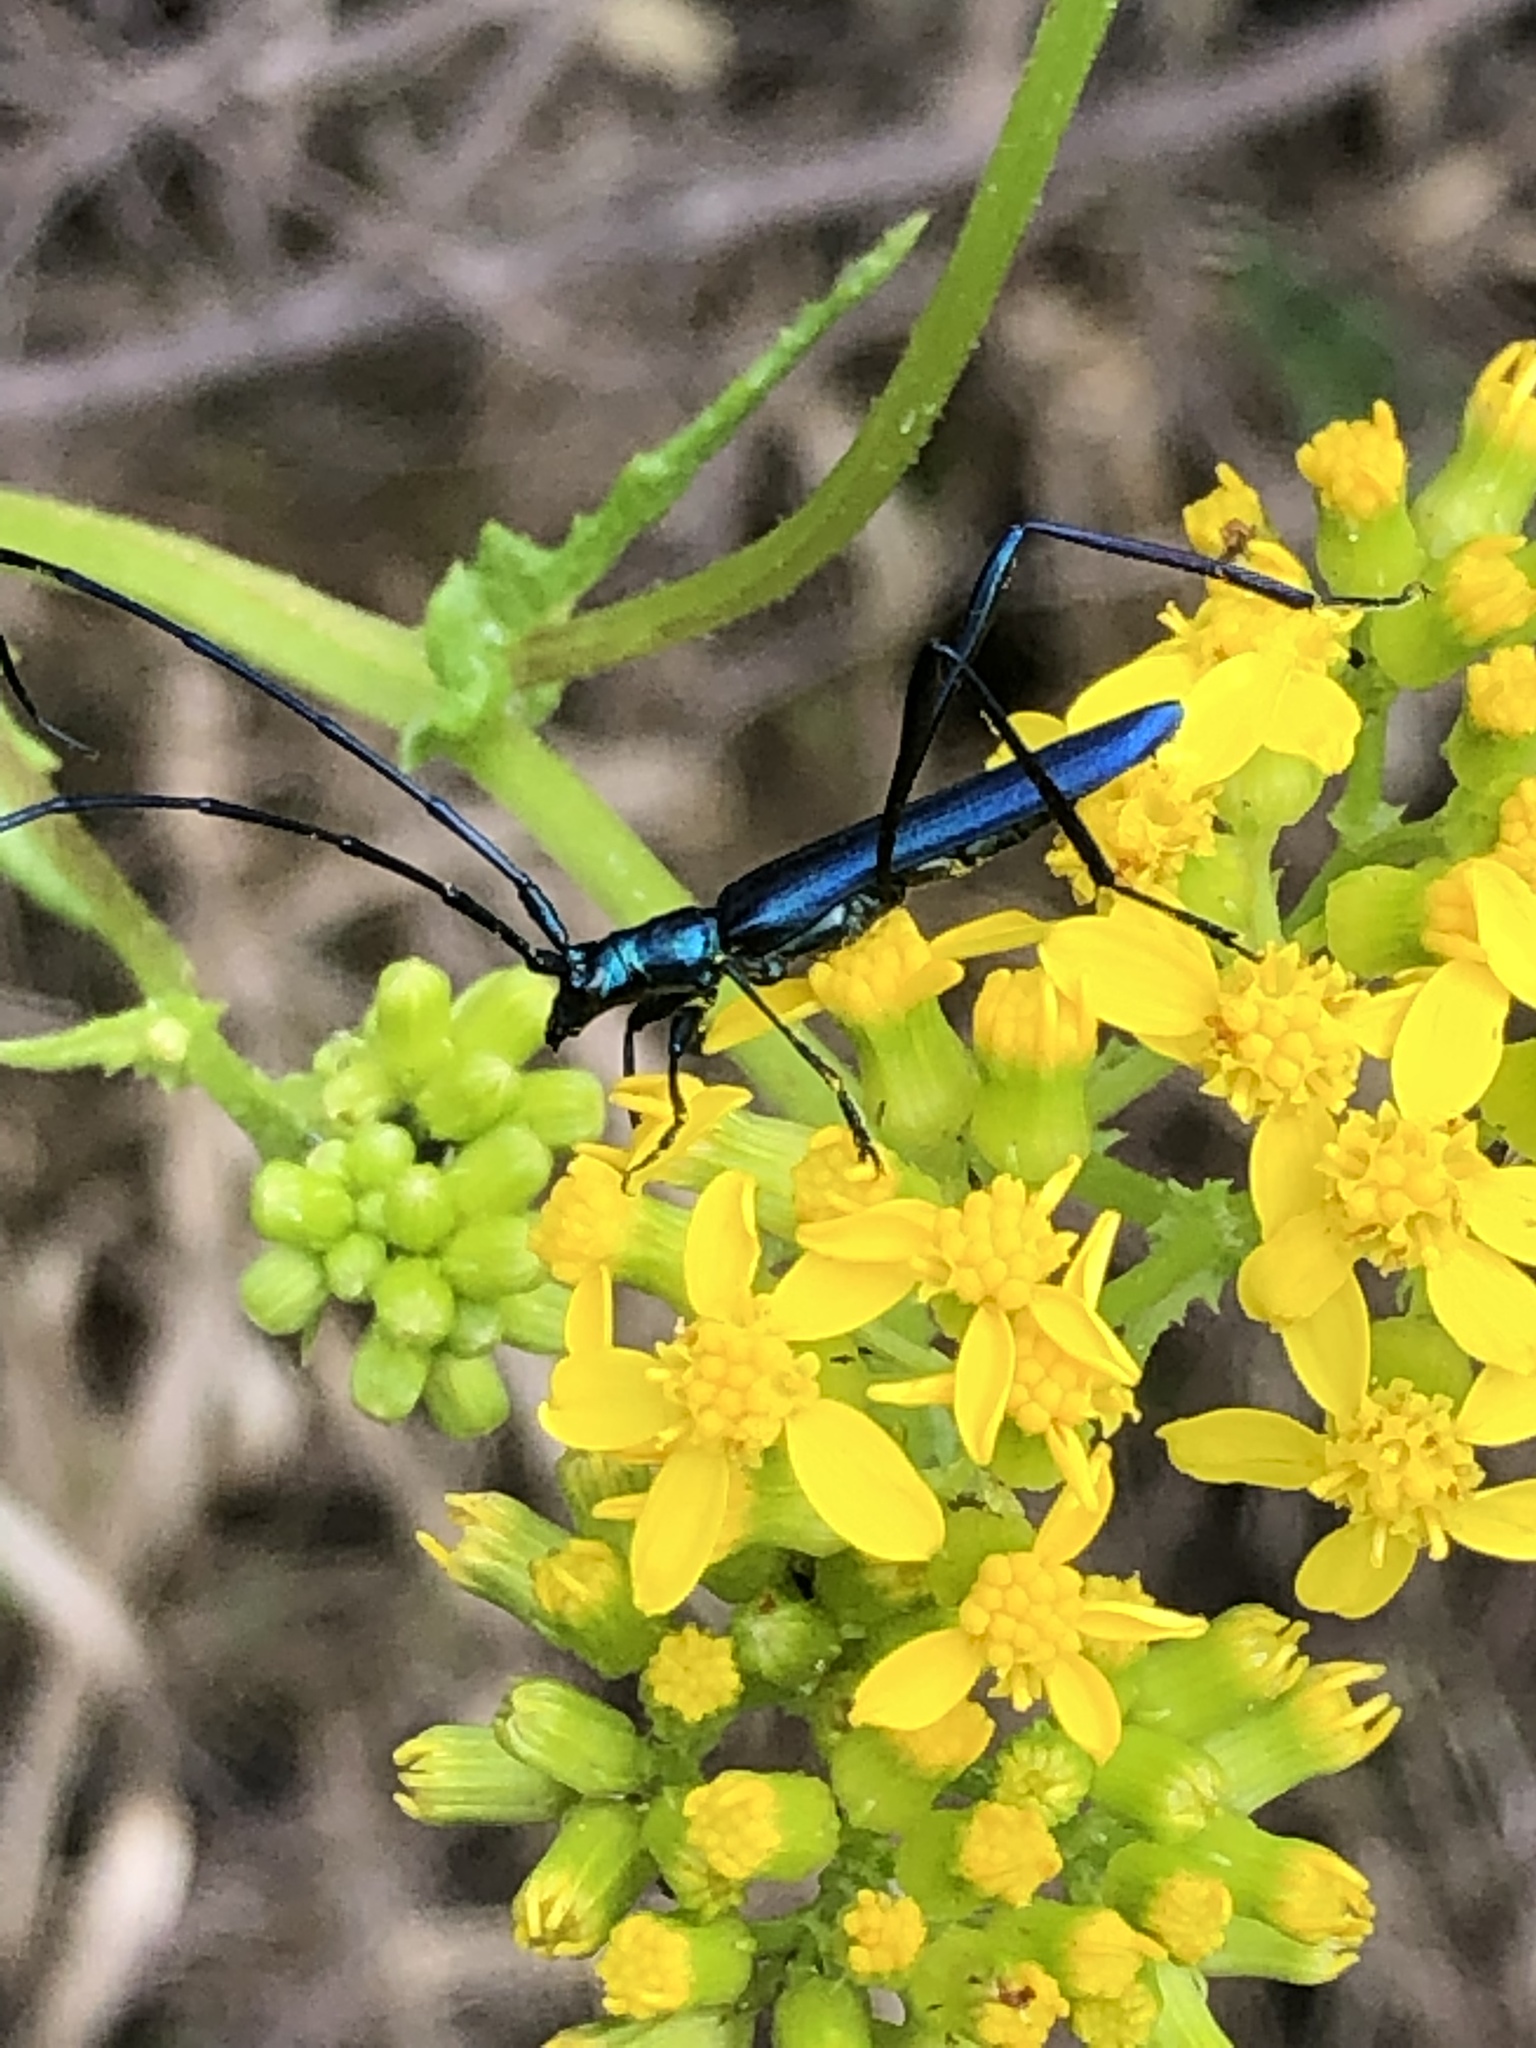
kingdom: Animalia
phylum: Arthropoda
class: Insecta
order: Coleoptera
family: Cerambycidae
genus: Promeces
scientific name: Promeces longipes
